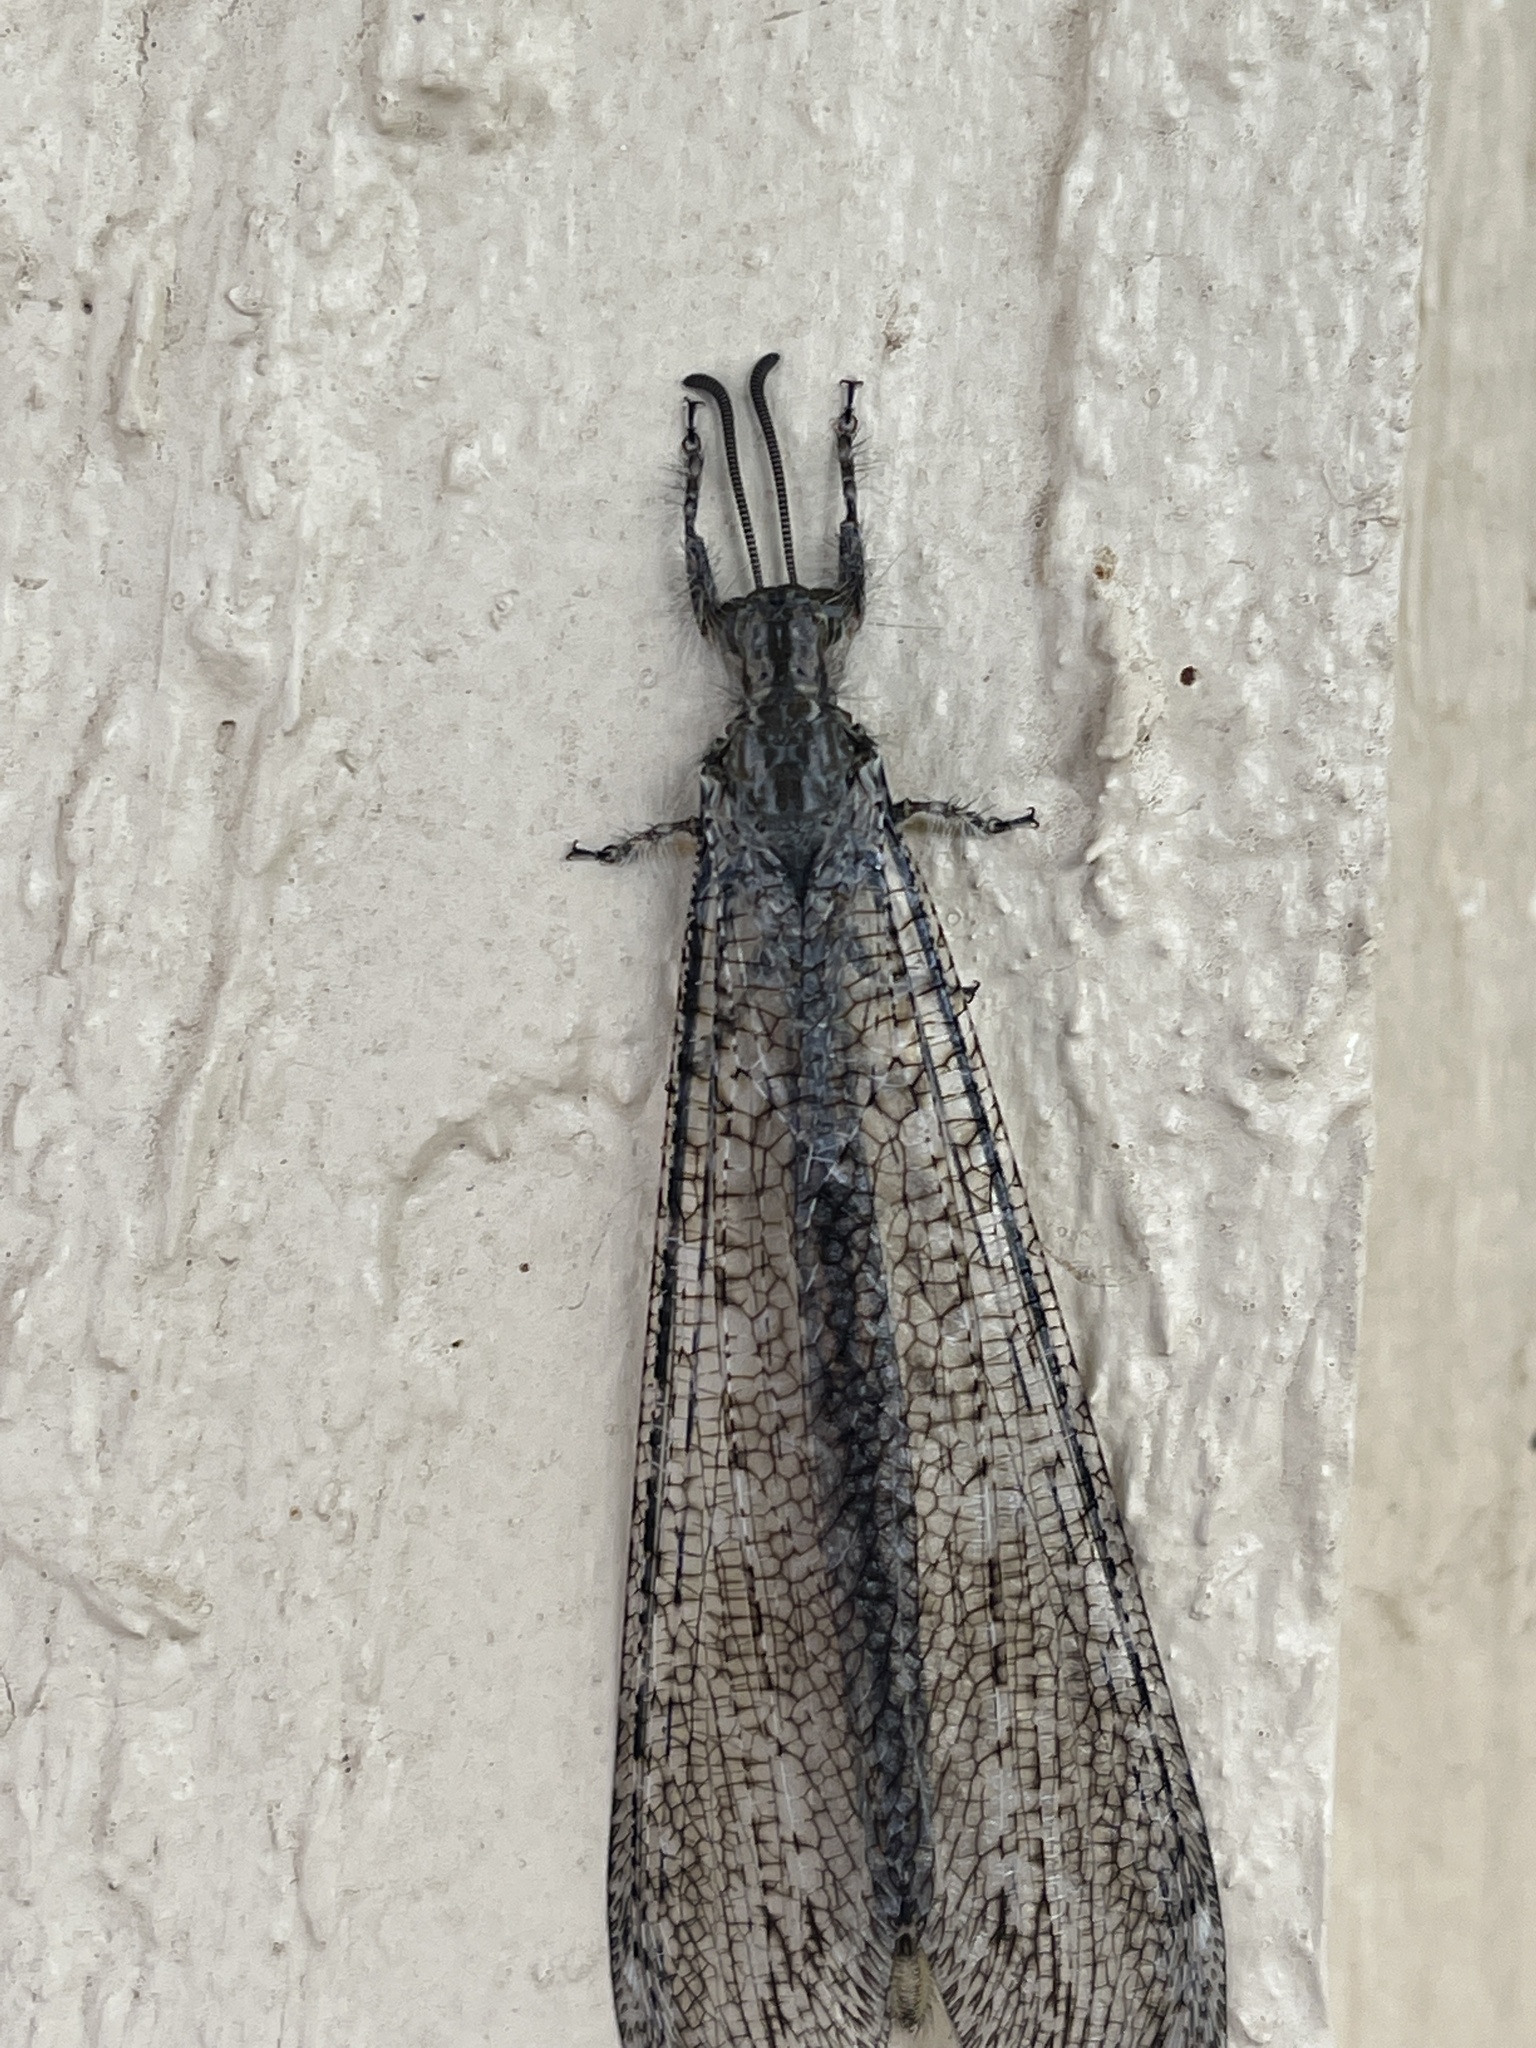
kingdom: Animalia
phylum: Arthropoda
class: Insecta
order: Neuroptera
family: Myrmeleontidae
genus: Vella
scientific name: Vella fallax
